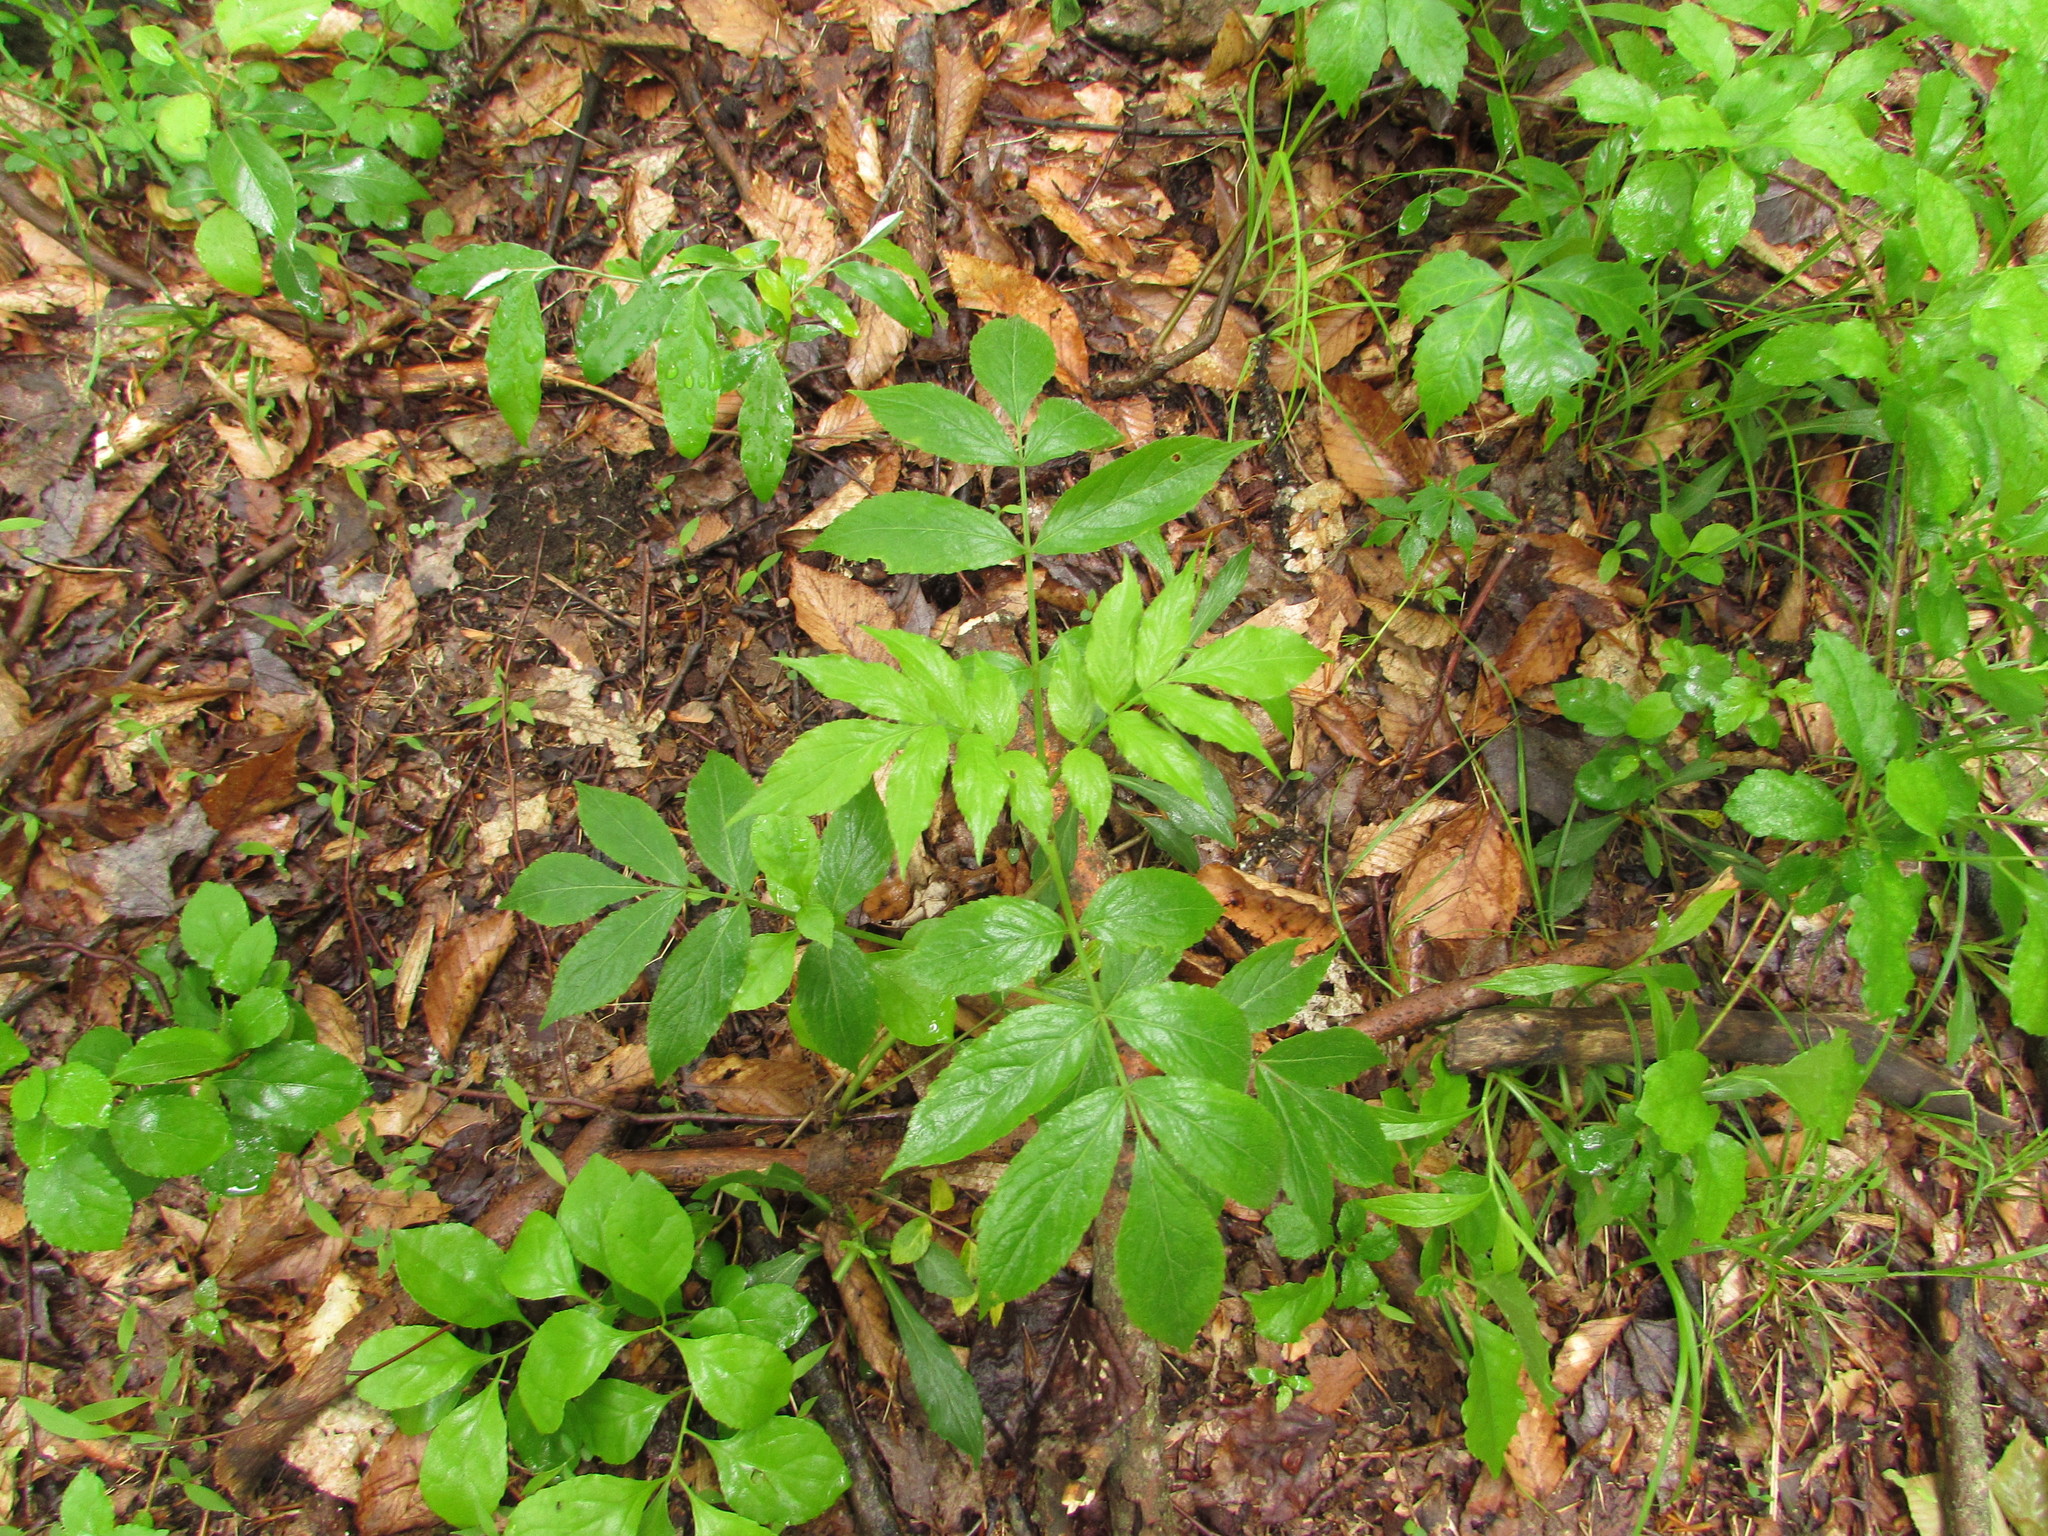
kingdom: Plantae
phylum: Tracheophyta
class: Magnoliopsida
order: Dipsacales
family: Viburnaceae
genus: Sambucus
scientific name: Sambucus canadensis
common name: American elder
